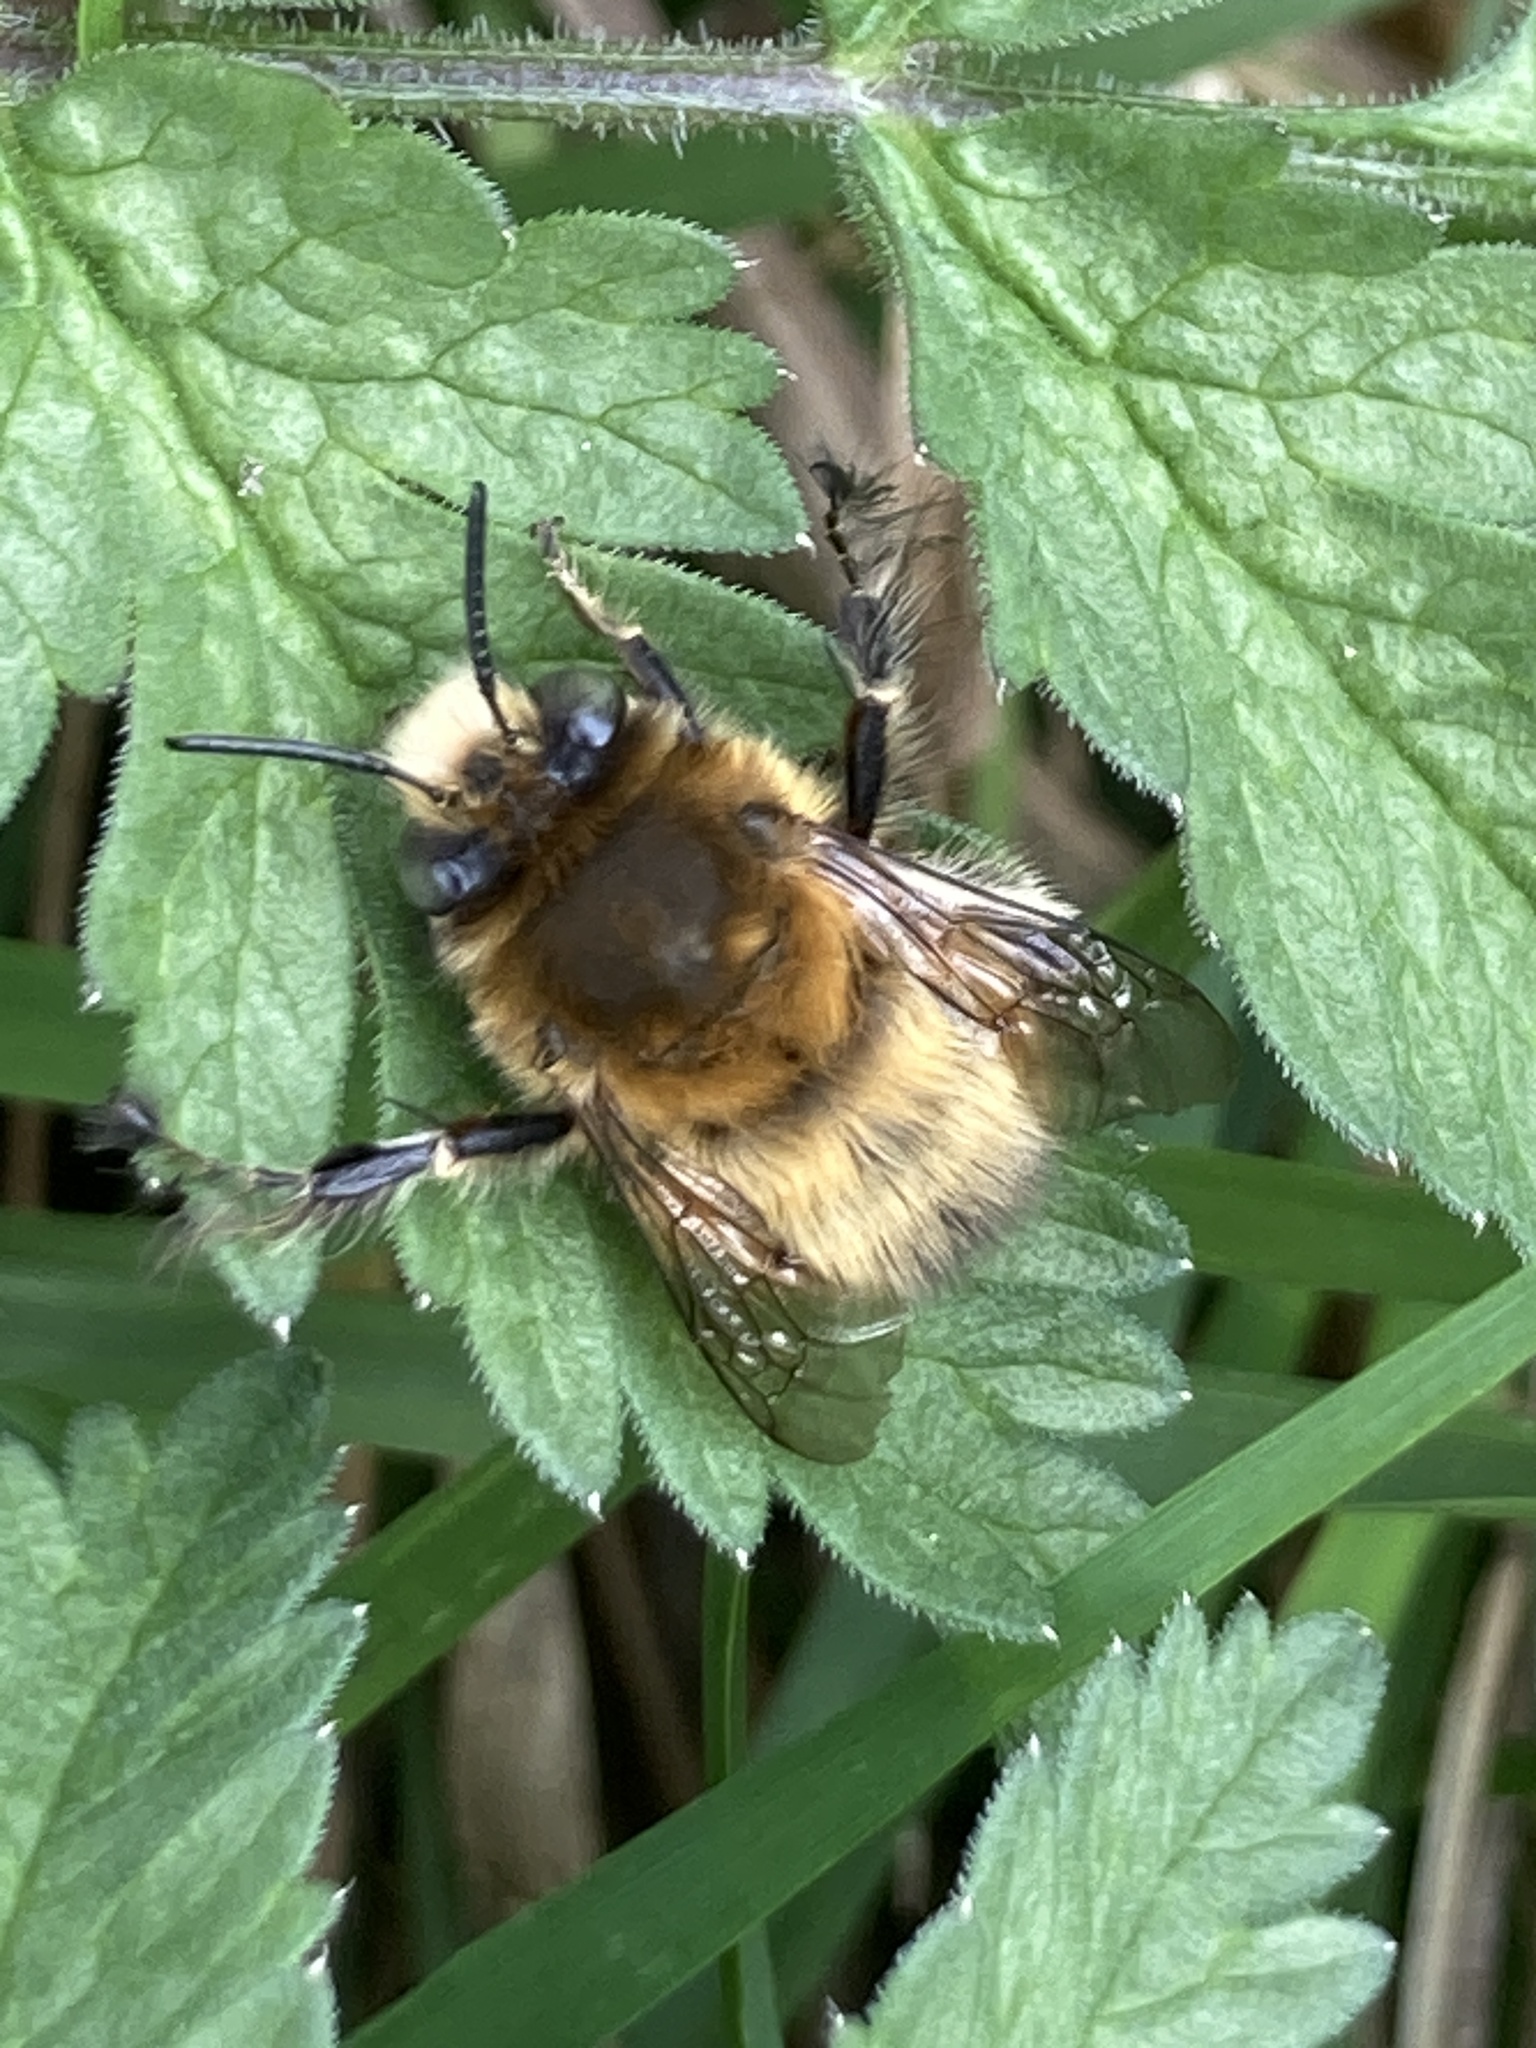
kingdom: Animalia
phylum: Arthropoda
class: Insecta
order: Hymenoptera
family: Apidae
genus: Anthophora
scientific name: Anthophora plumipes
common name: Hairy-footed flower bee
